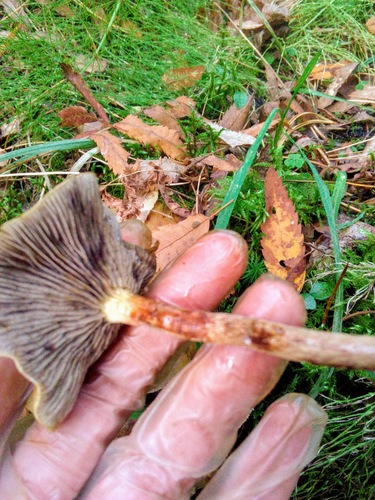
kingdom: Fungi
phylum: Basidiomycota
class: Agaricomycetes
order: Agaricales
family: Strophariaceae
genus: Hypholoma
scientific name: Hypholoma lateritium
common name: Brick caps
